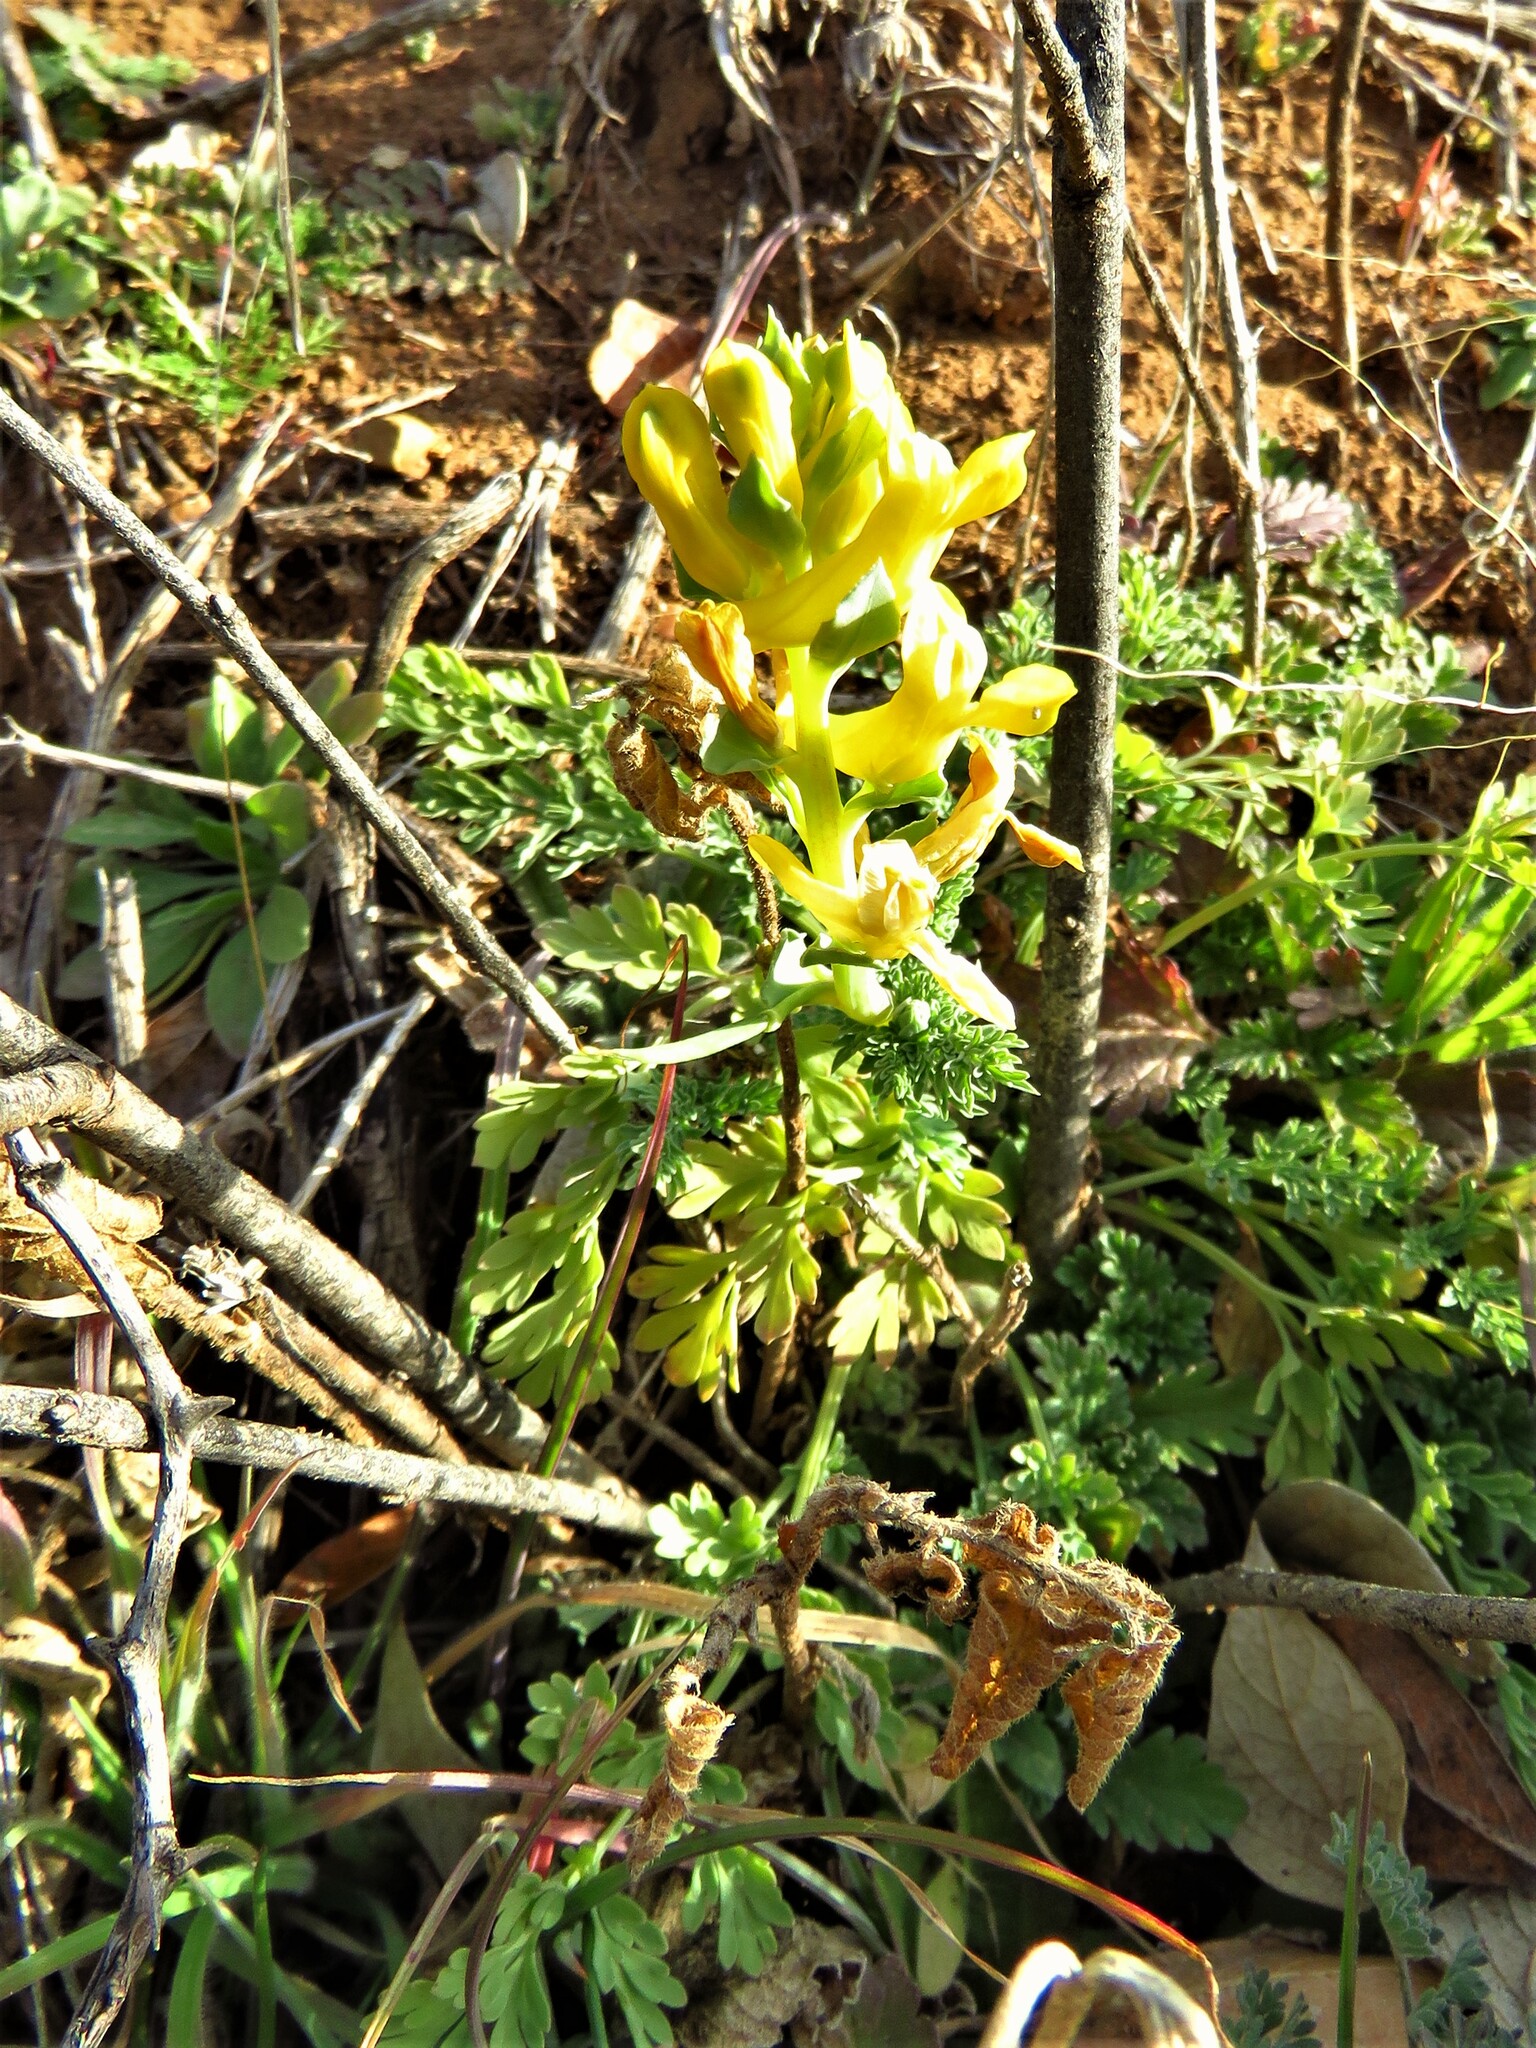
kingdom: Plantae
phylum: Tracheophyta
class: Magnoliopsida
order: Ranunculales
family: Papaveraceae
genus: Corydalis
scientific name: Corydalis aurea
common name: Golden corydalis
